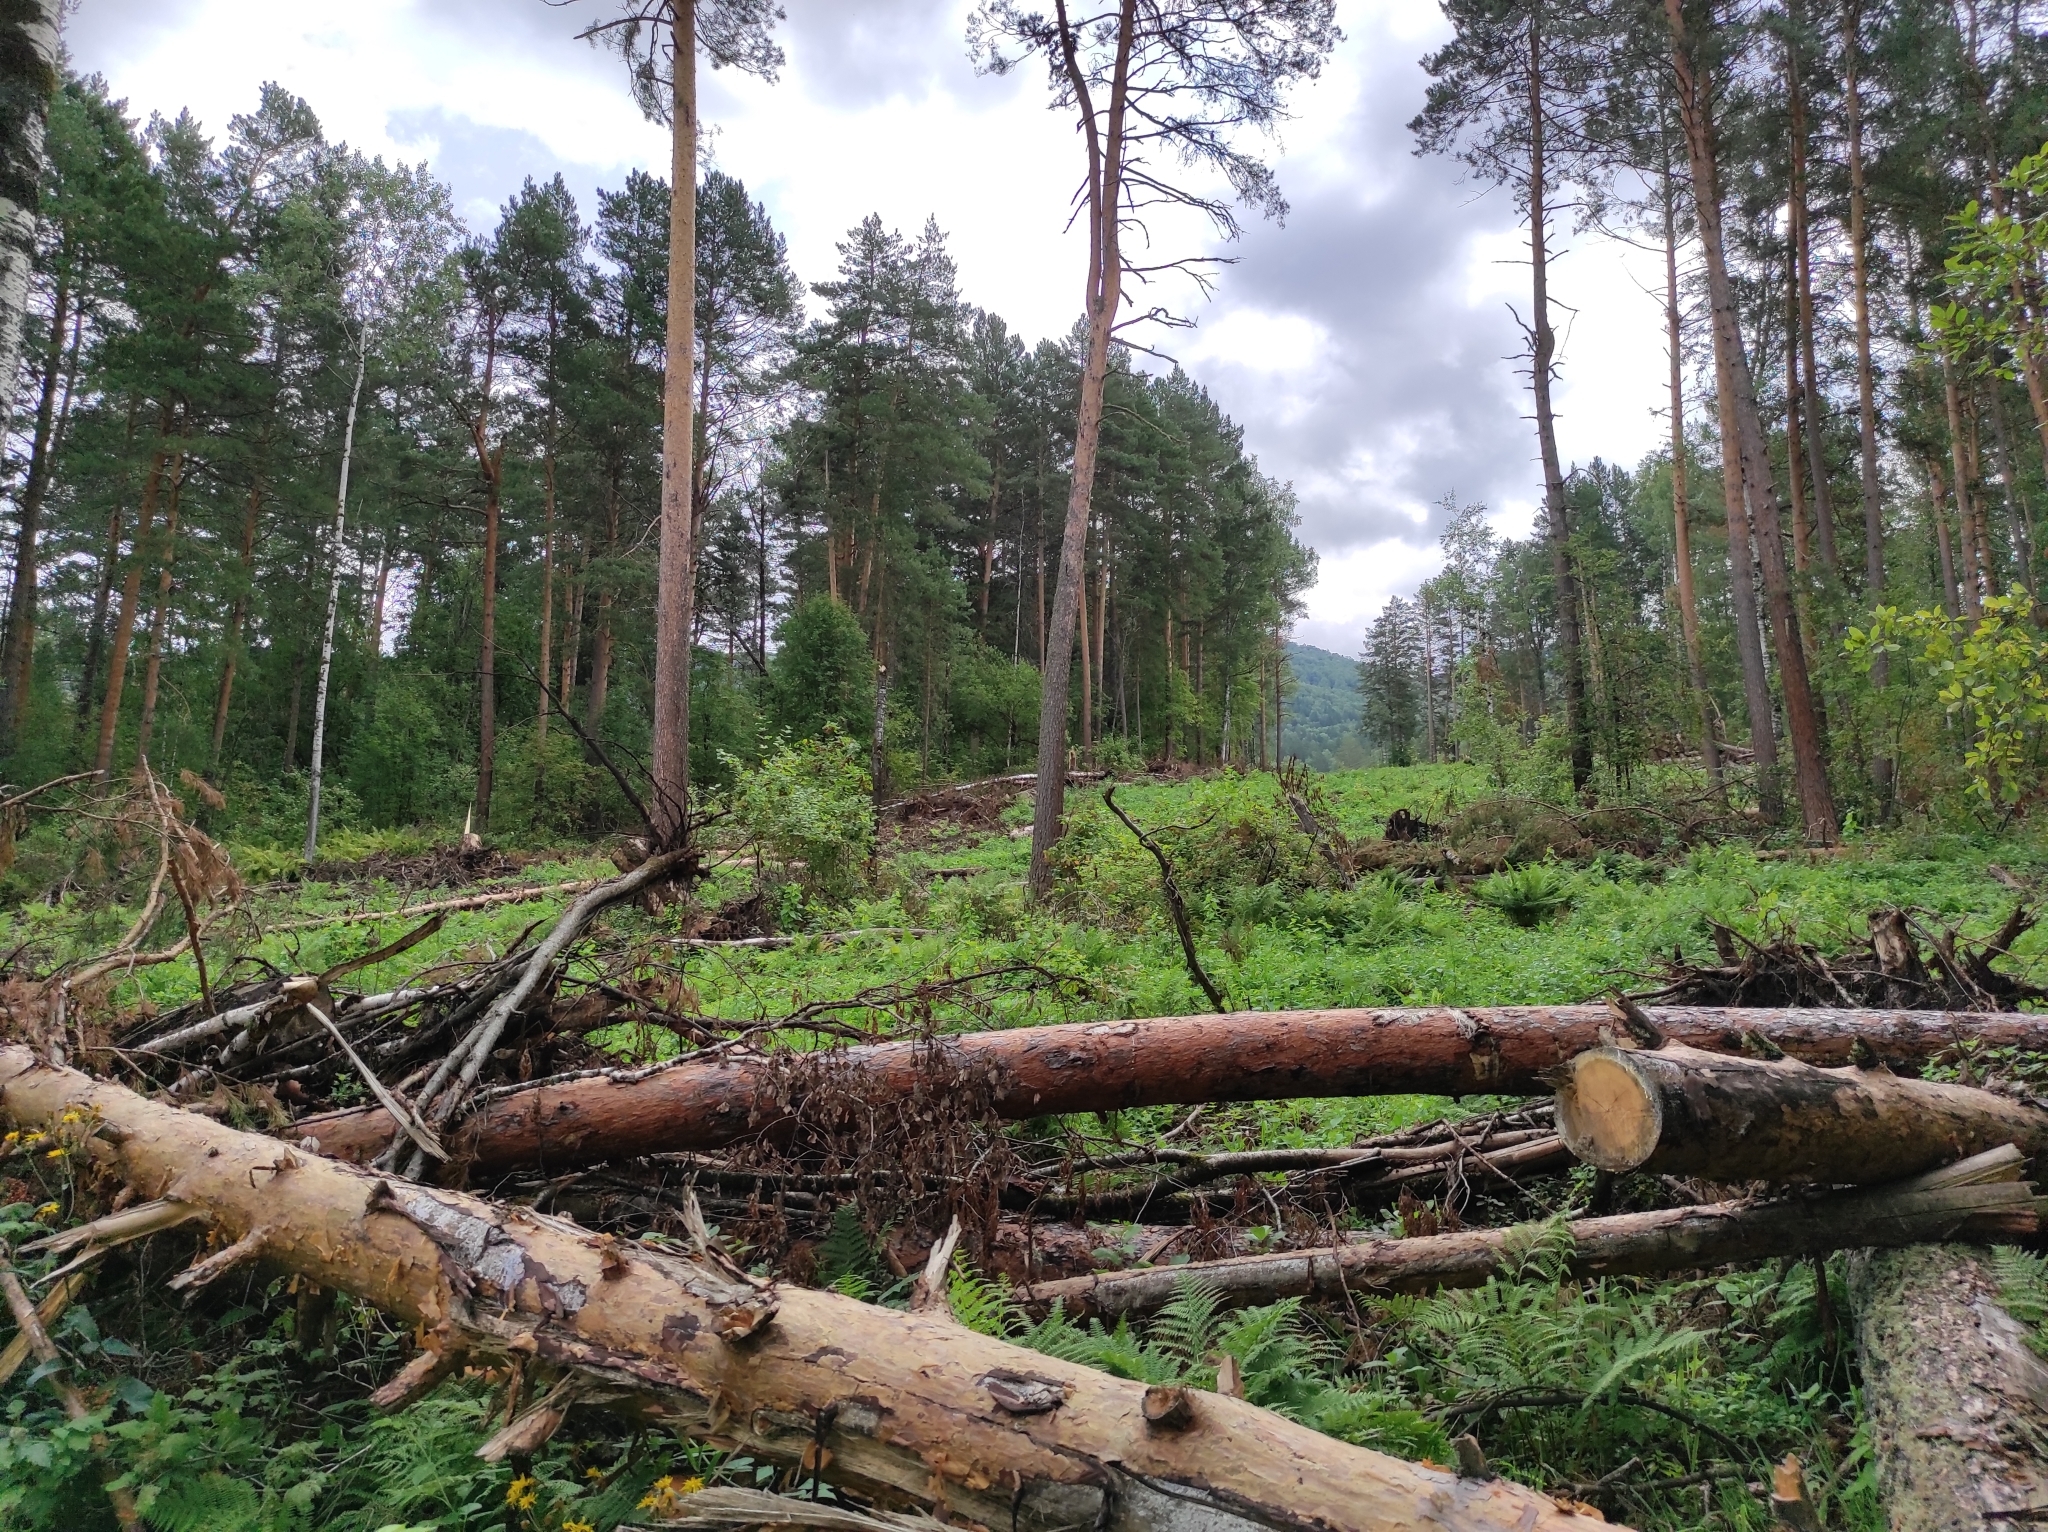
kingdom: Plantae
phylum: Tracheophyta
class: Pinopsida
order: Pinales
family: Pinaceae
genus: Pinus
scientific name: Pinus sylvestris
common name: Scots pine
